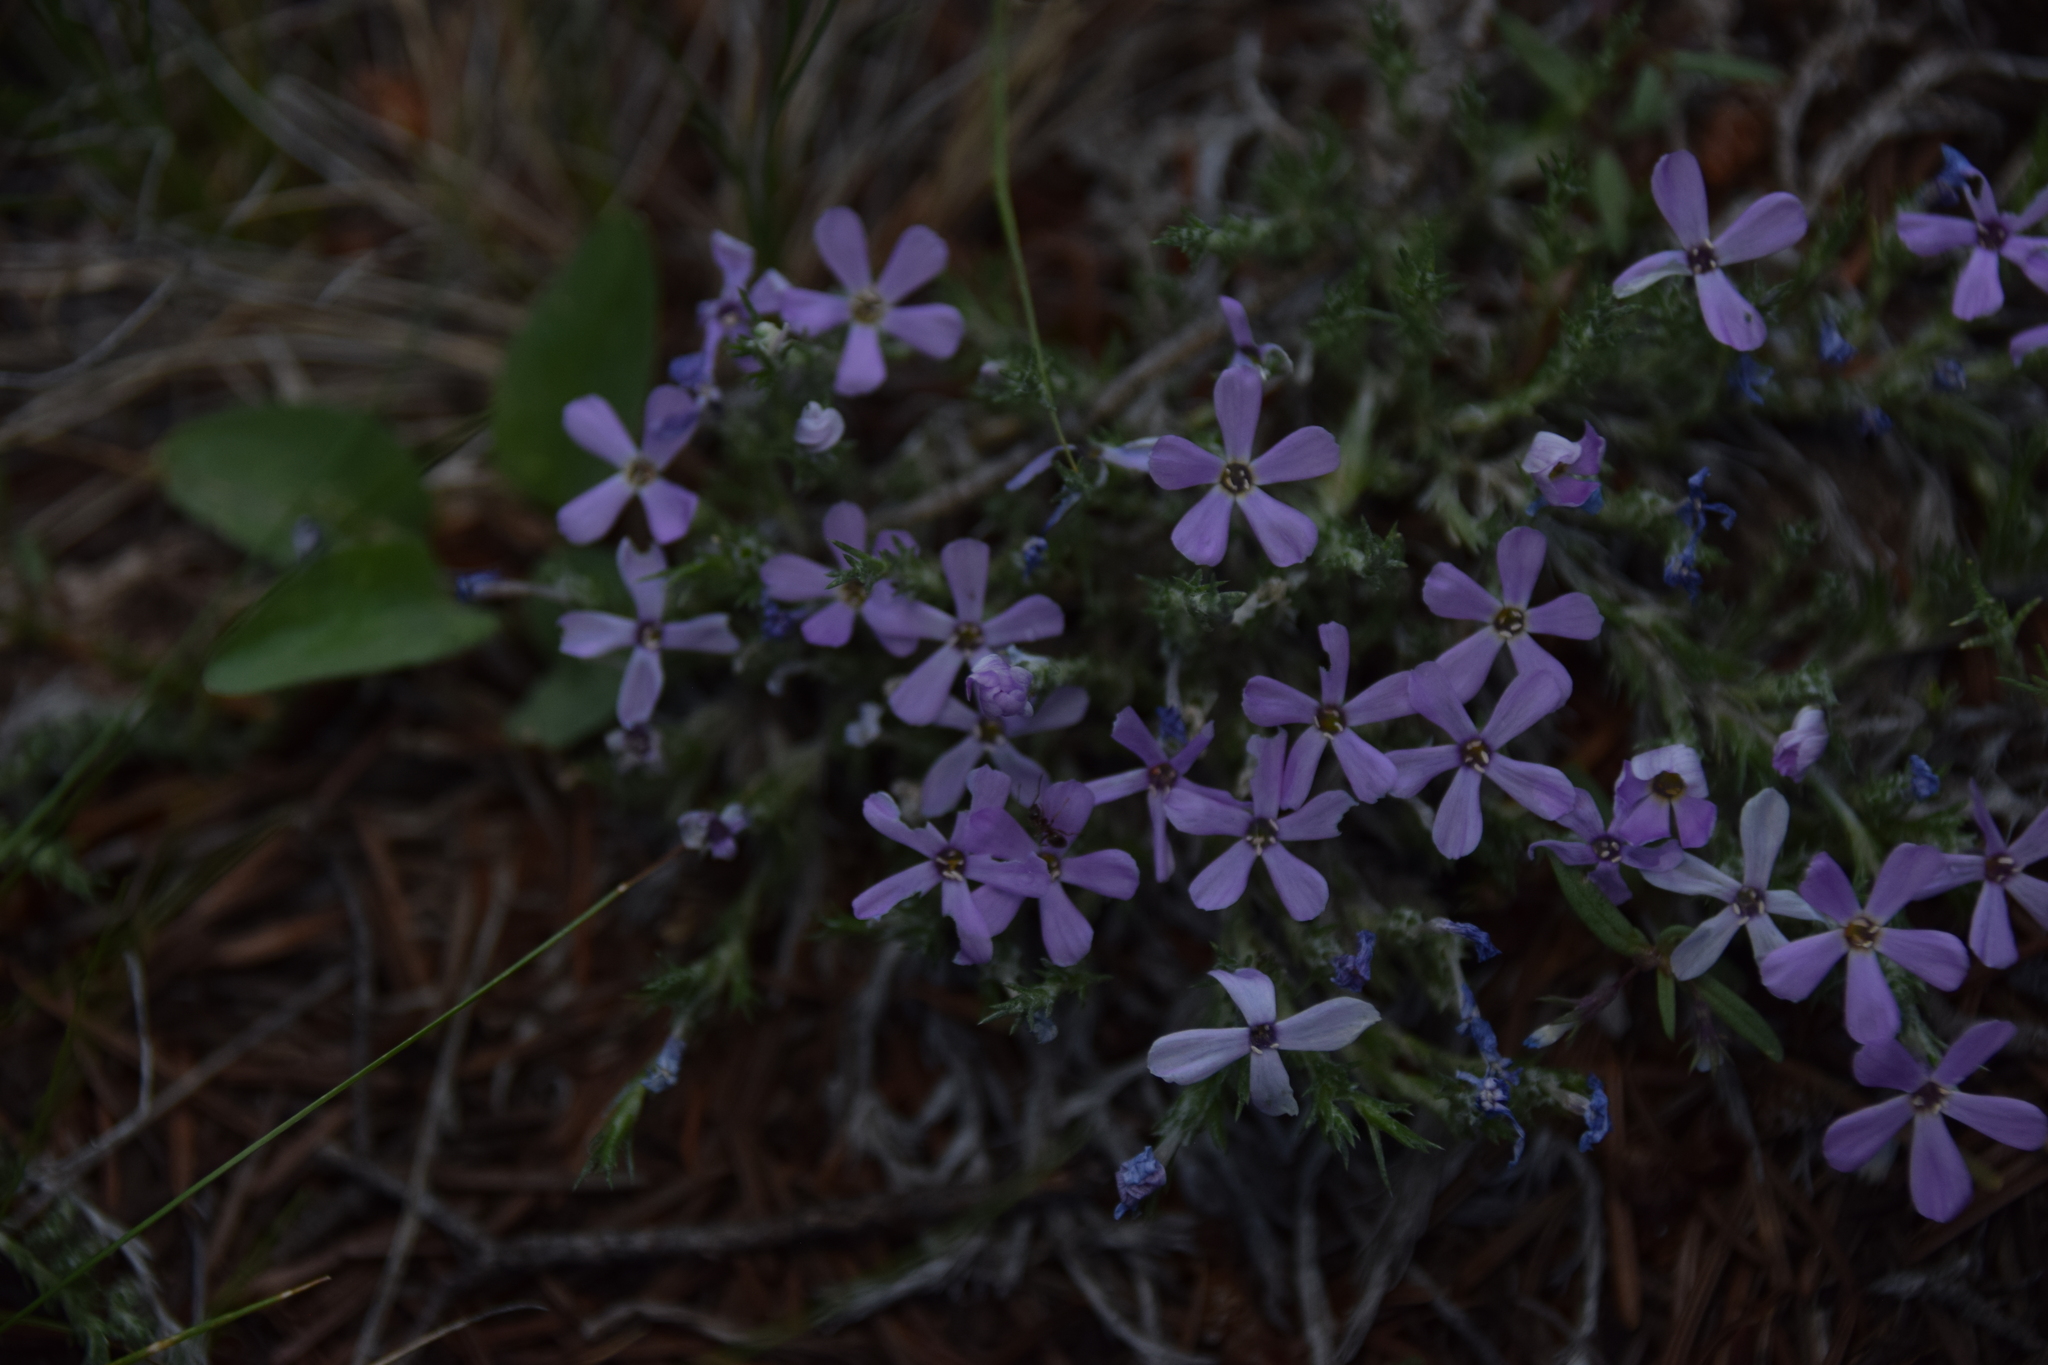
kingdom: Plantae
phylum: Tracheophyta
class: Magnoliopsida
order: Ericales
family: Polemoniaceae
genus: Phlox
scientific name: Phlox hoodii
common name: Moss phlox
